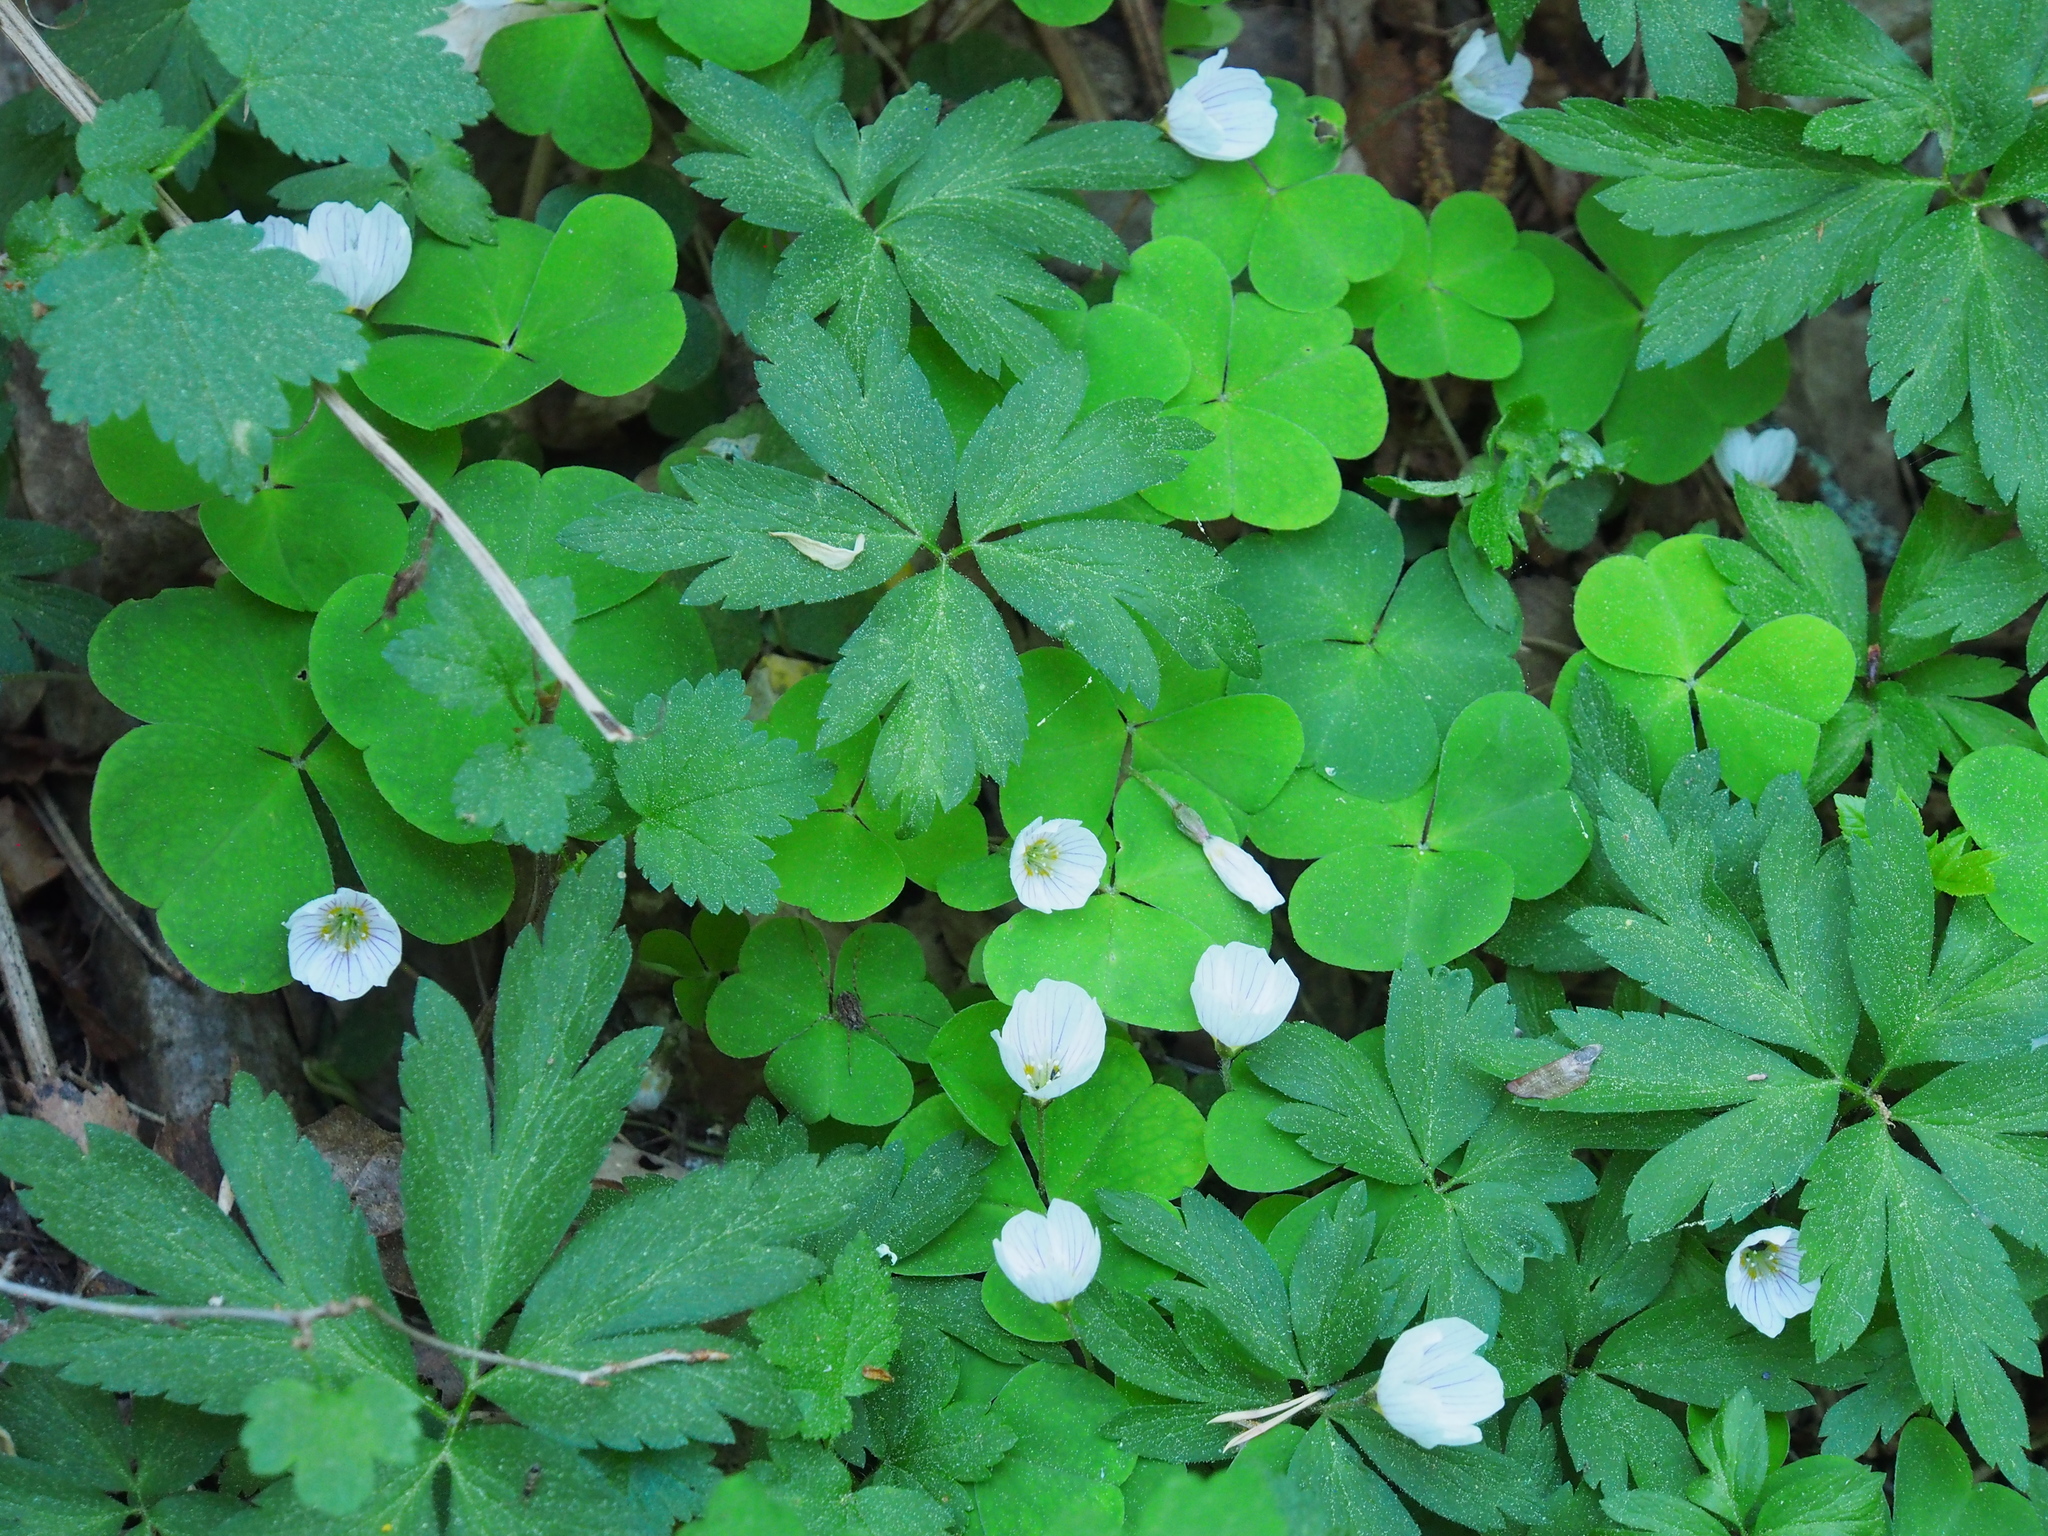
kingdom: Plantae
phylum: Tracheophyta
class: Magnoliopsida
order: Oxalidales
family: Oxalidaceae
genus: Oxalis
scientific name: Oxalis acetosella
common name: Wood-sorrel
